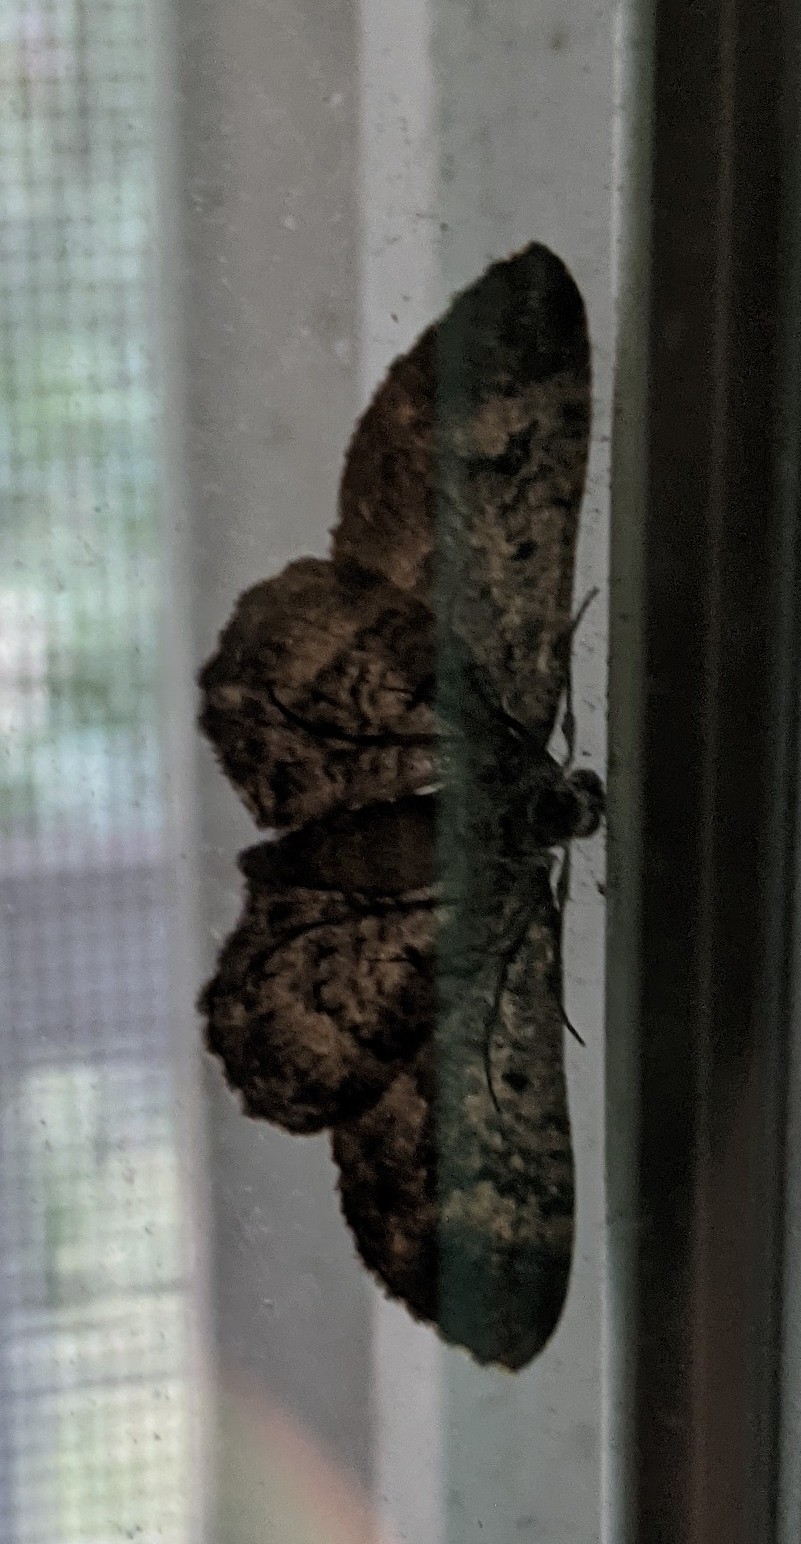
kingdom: Animalia
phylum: Arthropoda
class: Insecta
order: Lepidoptera
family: Geometridae
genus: Glenoides
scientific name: Glenoides texanaria
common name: Texas gray
